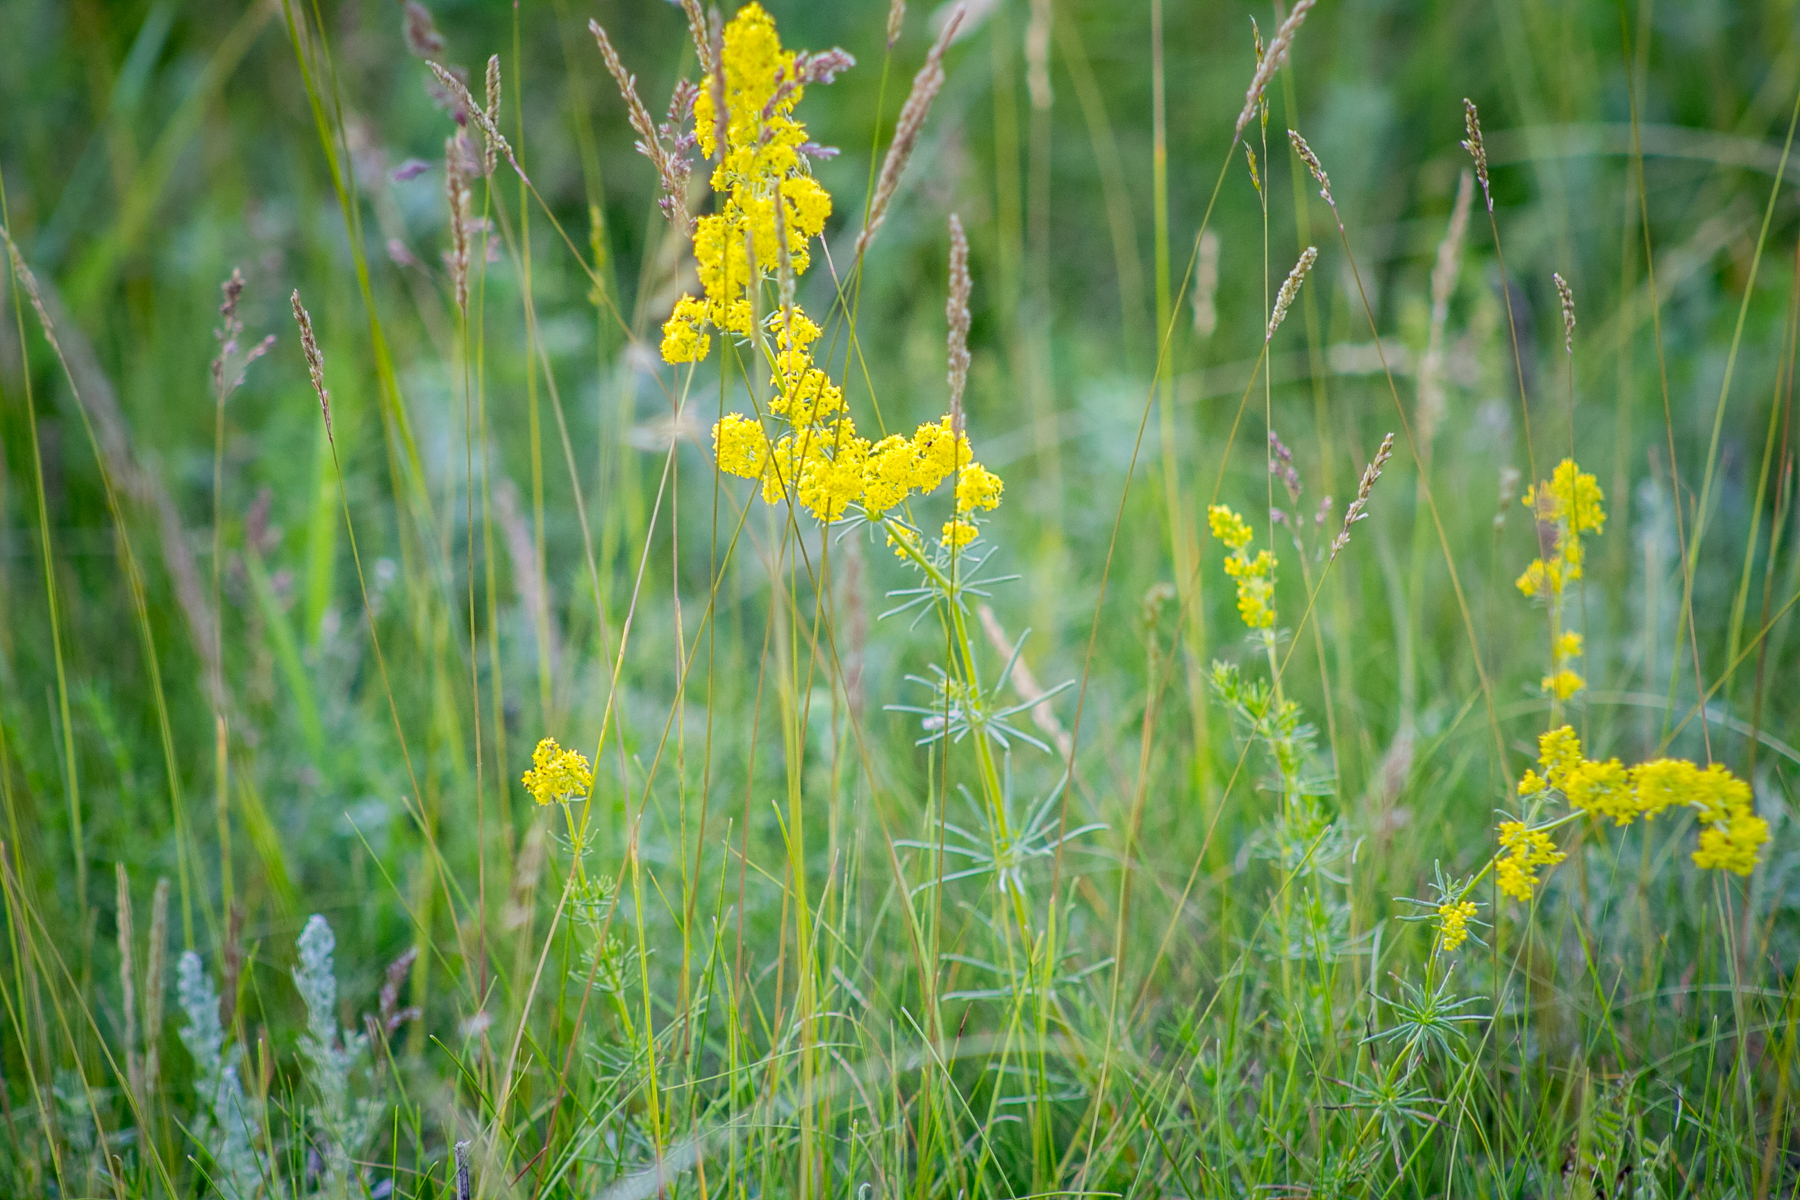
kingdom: Plantae
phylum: Tracheophyta
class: Magnoliopsida
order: Gentianales
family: Rubiaceae
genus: Galium
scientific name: Galium verum
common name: Lady's bedstraw
